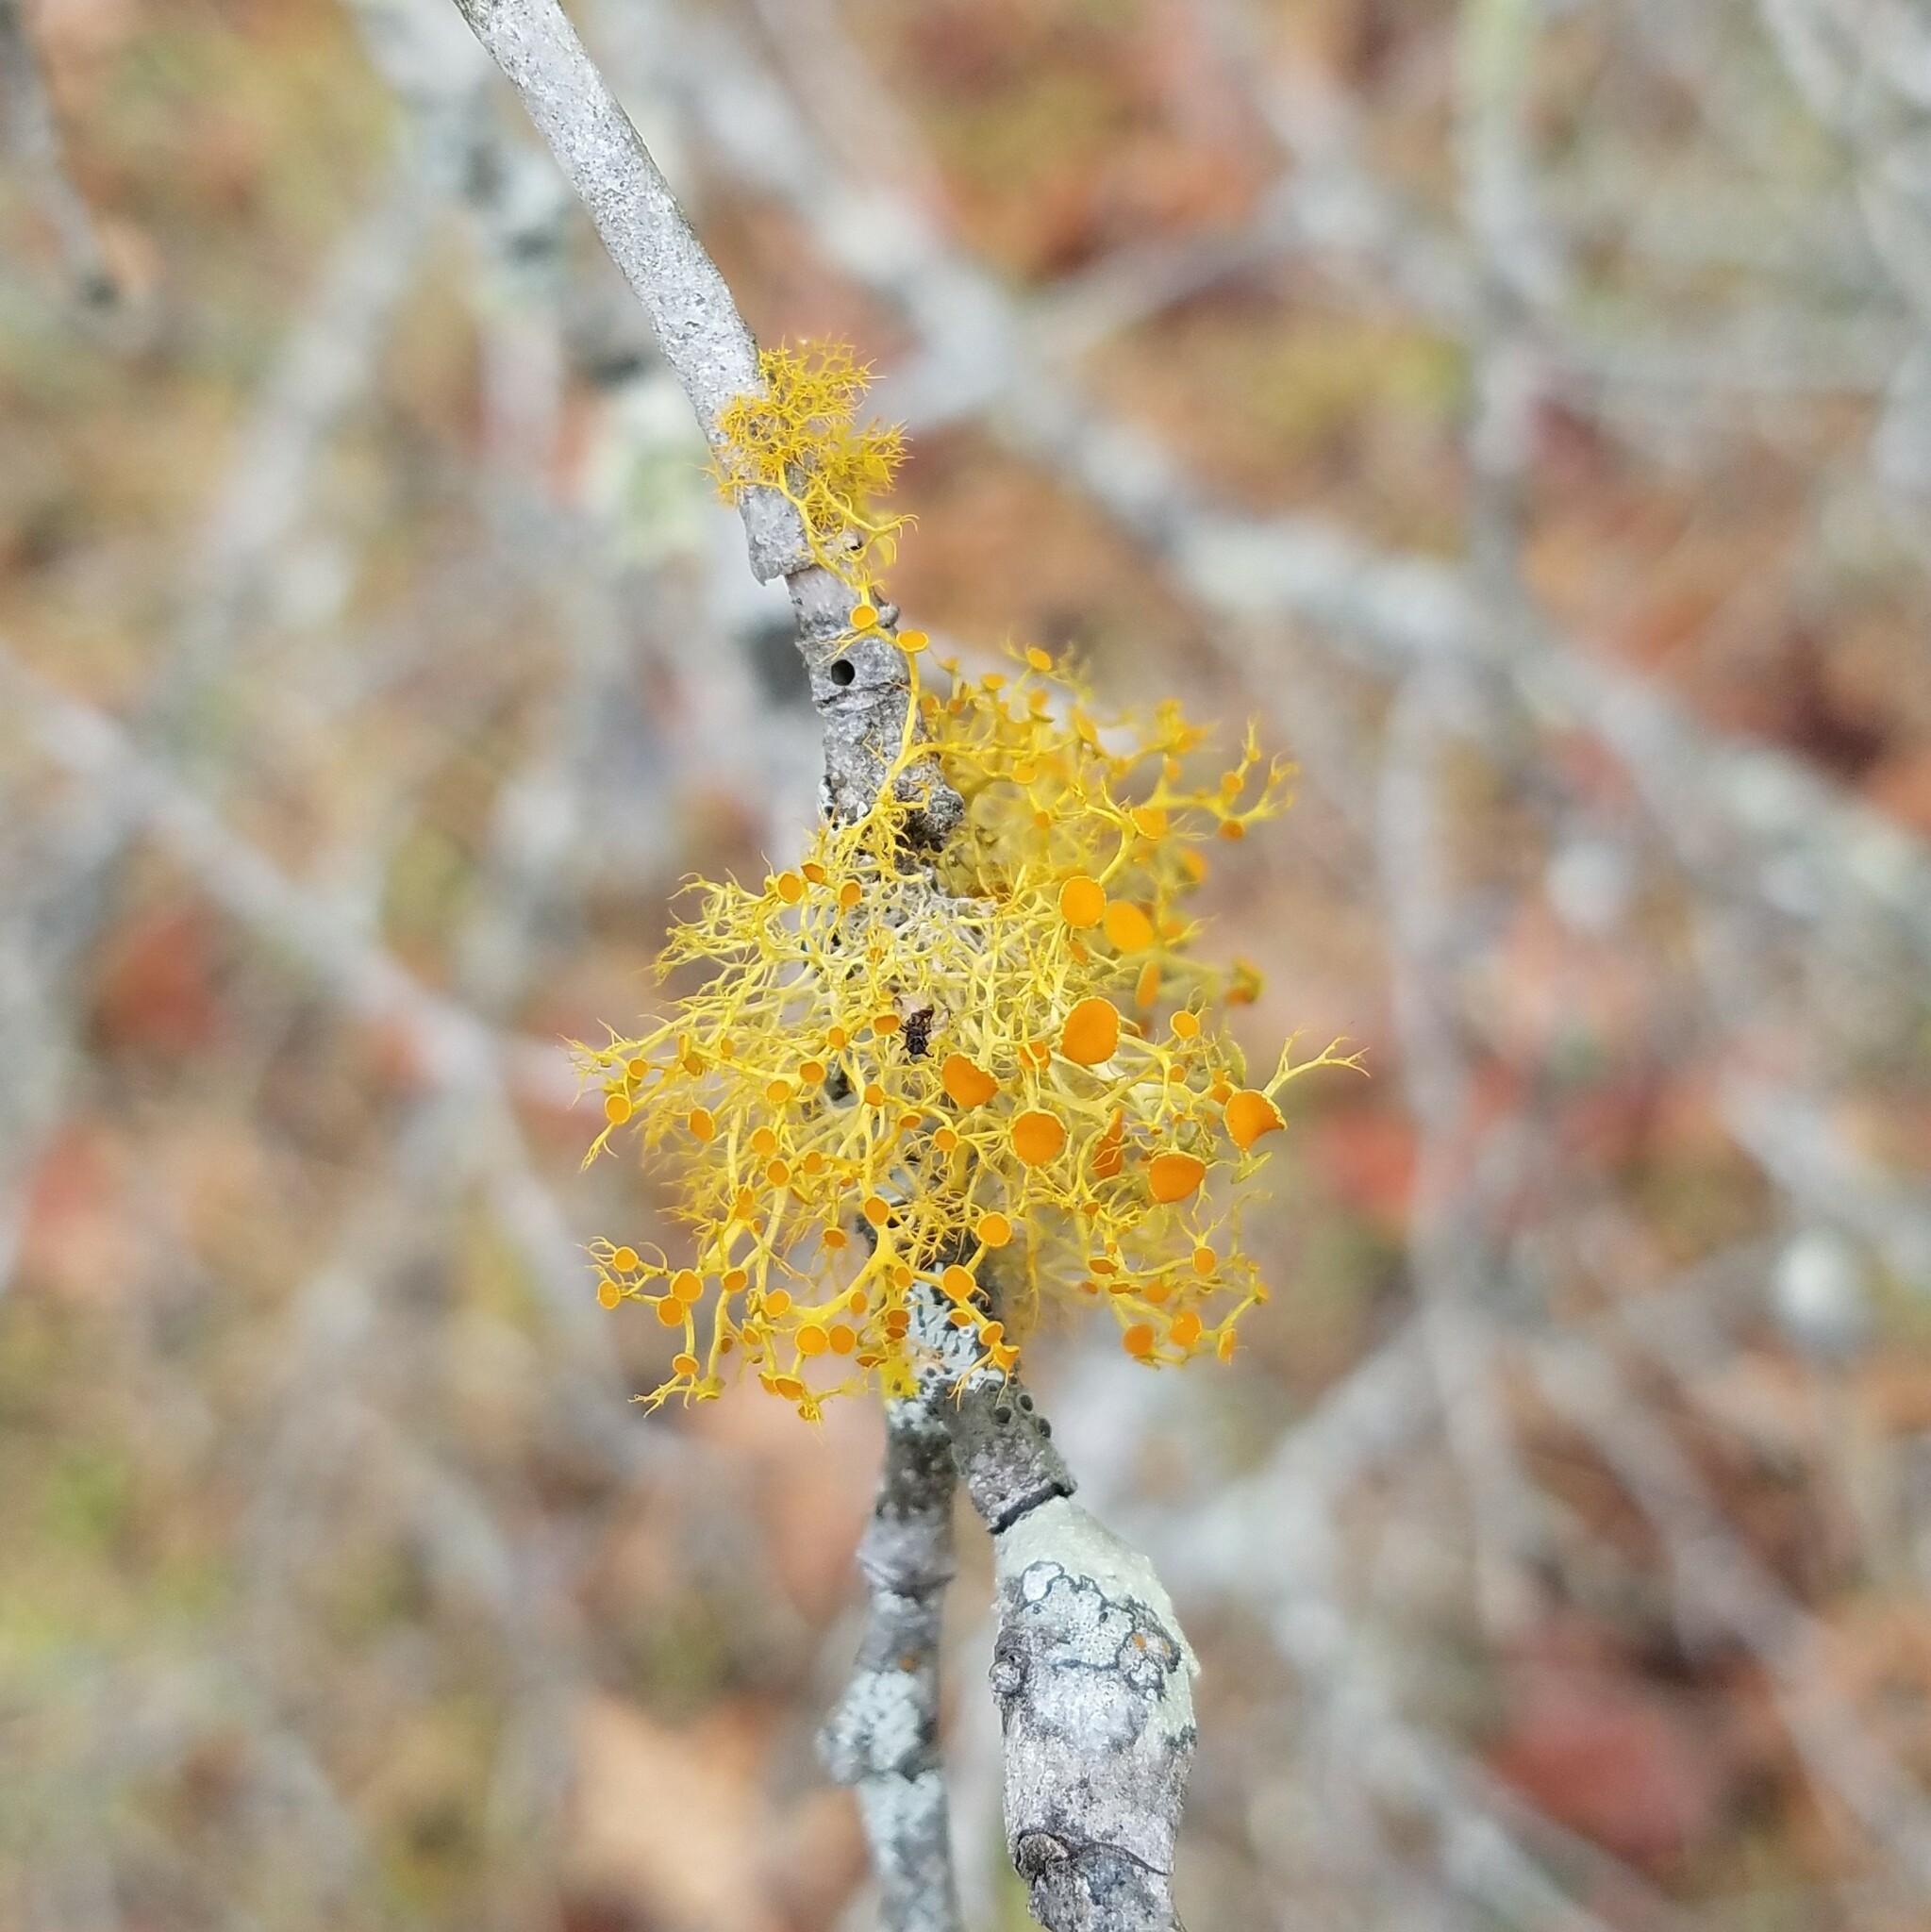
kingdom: Fungi
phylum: Ascomycota
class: Lecanoromycetes
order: Teloschistales
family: Teloschistaceae
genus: Teloschistes
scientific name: Teloschistes exilis
